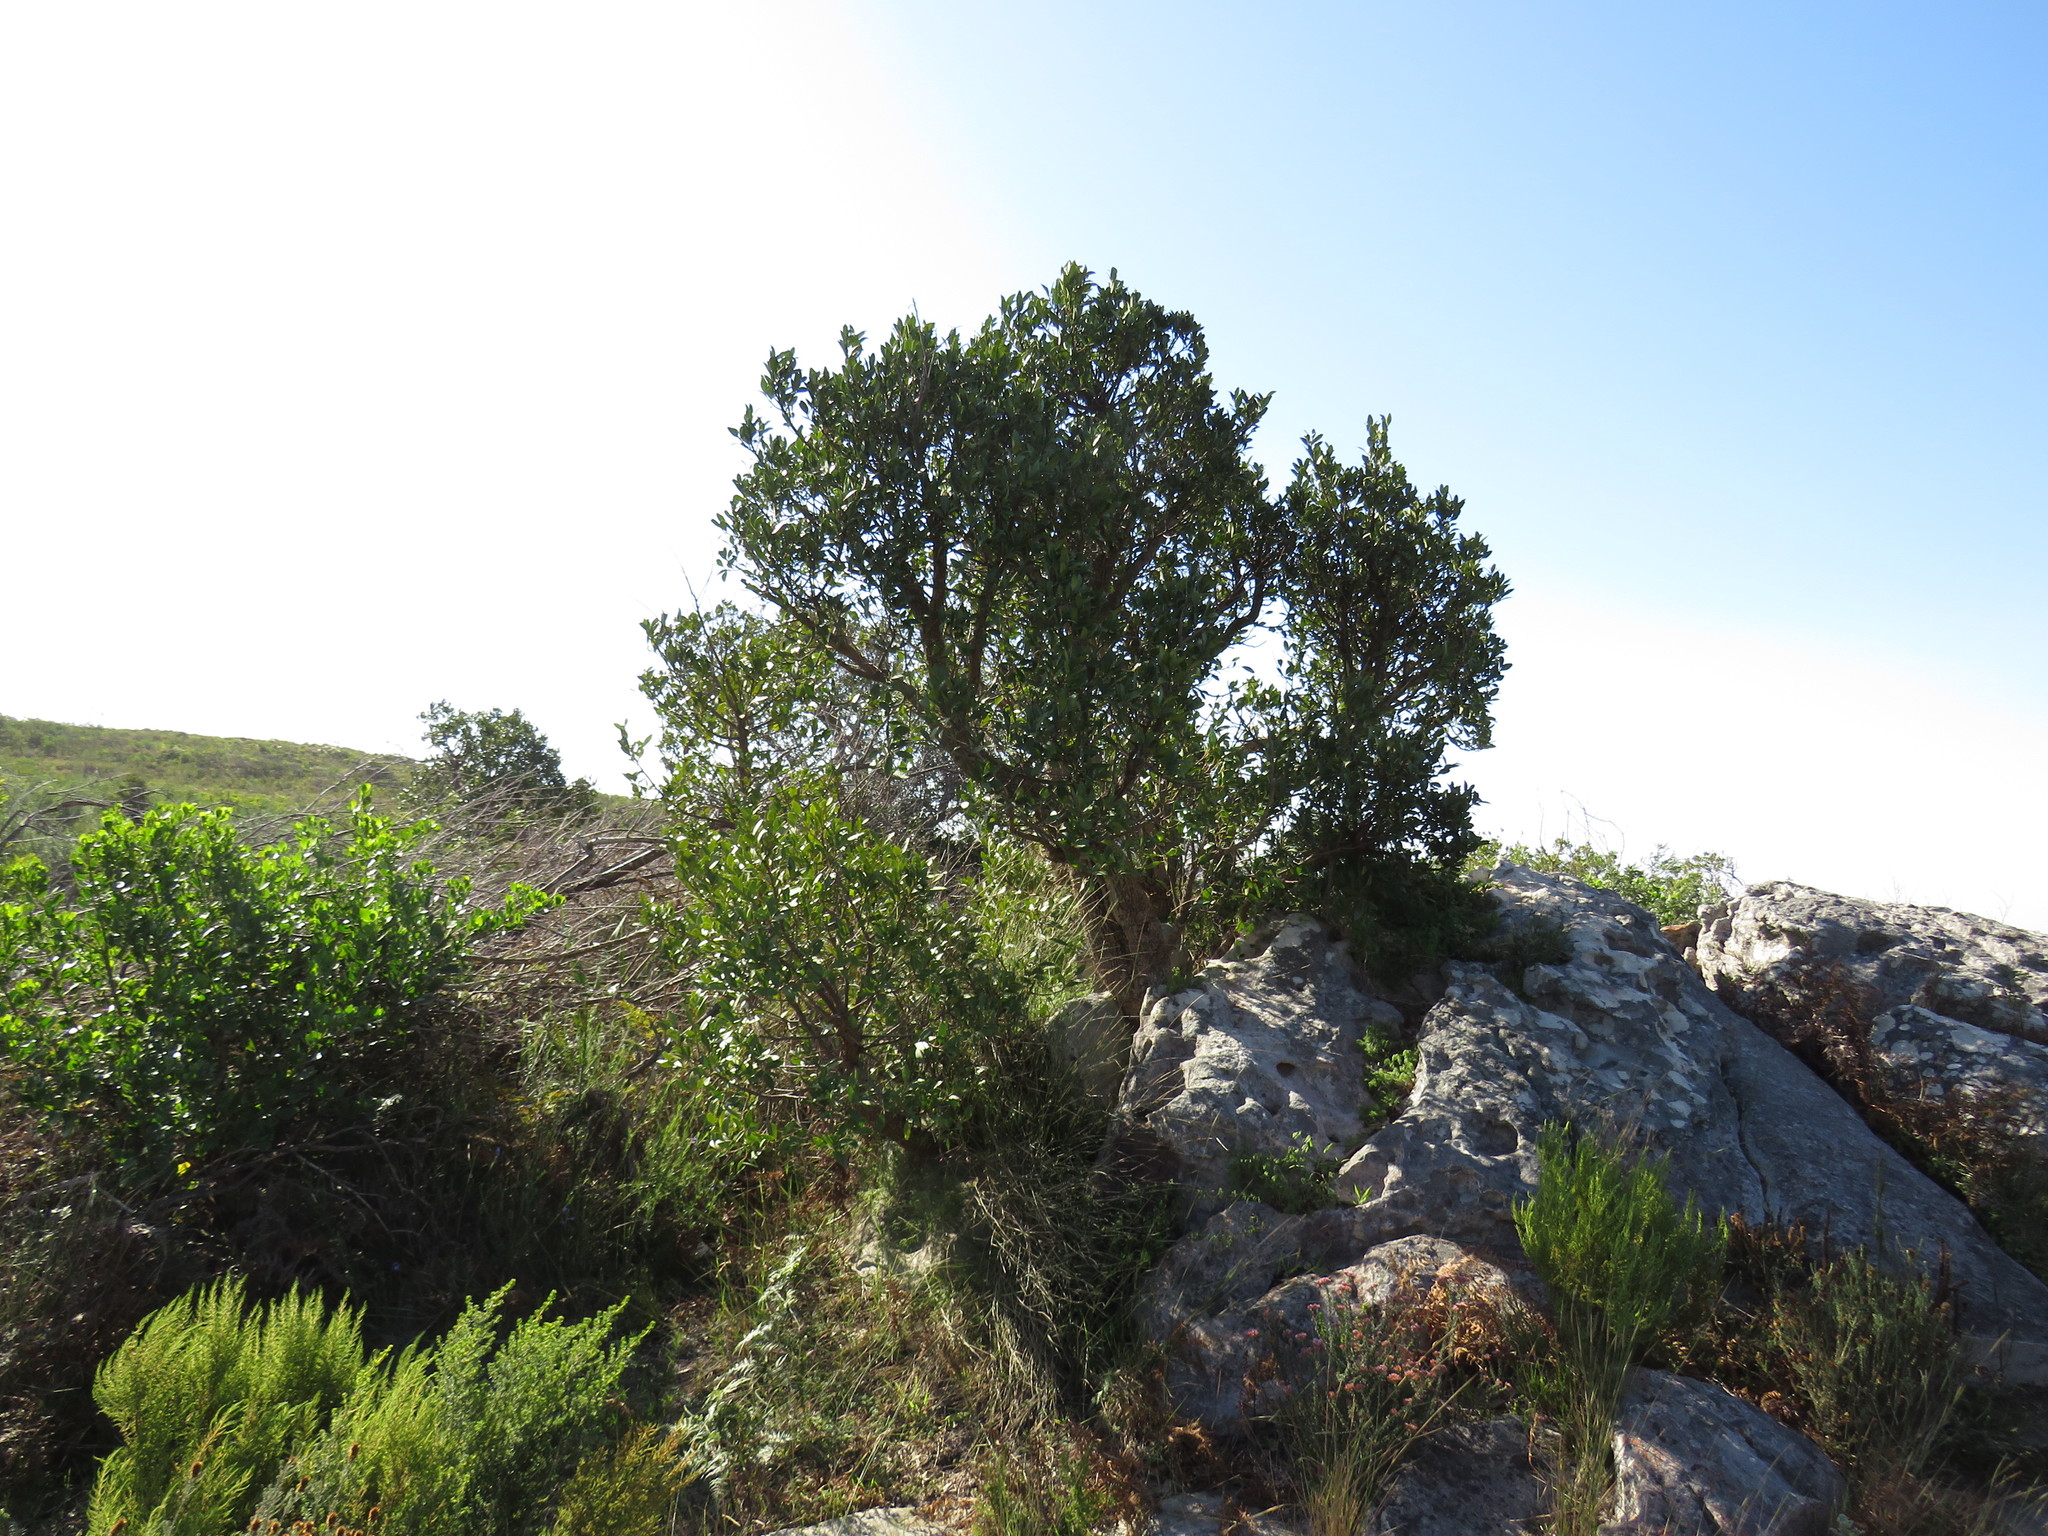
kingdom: Plantae
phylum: Tracheophyta
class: Magnoliopsida
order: Celastrales
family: Celastraceae
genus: Gymnosporia
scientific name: Gymnosporia laurina
